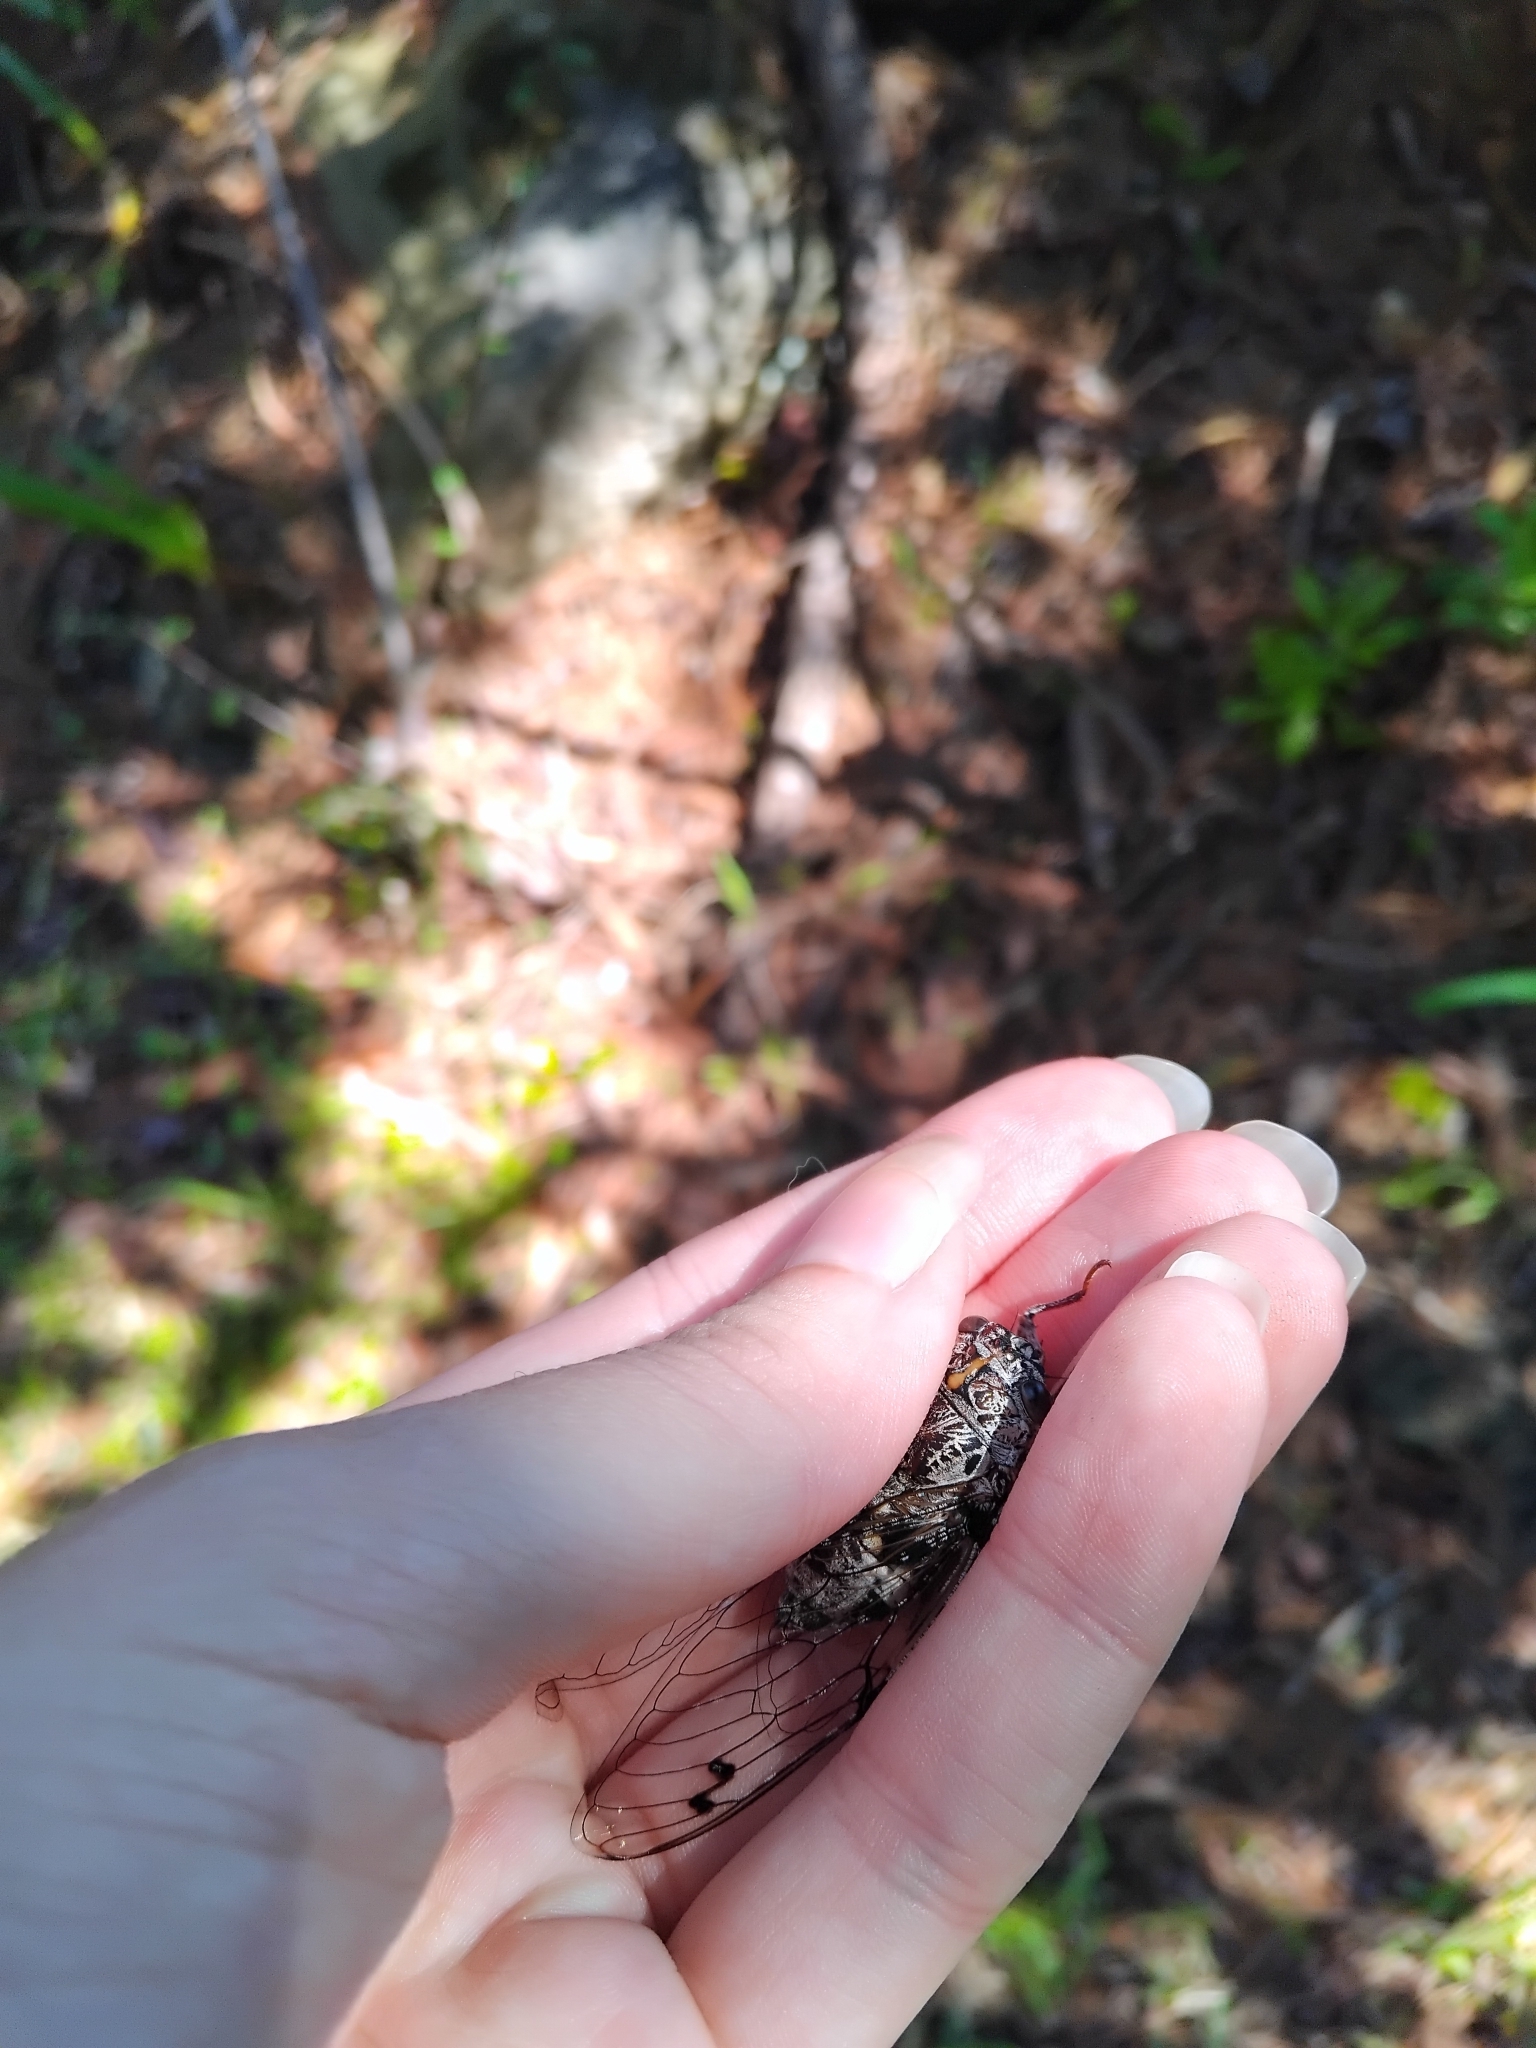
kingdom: Animalia
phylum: Arthropoda
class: Insecta
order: Hemiptera
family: Cicadidae
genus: Aleeta
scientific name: Aleeta curvicosta
